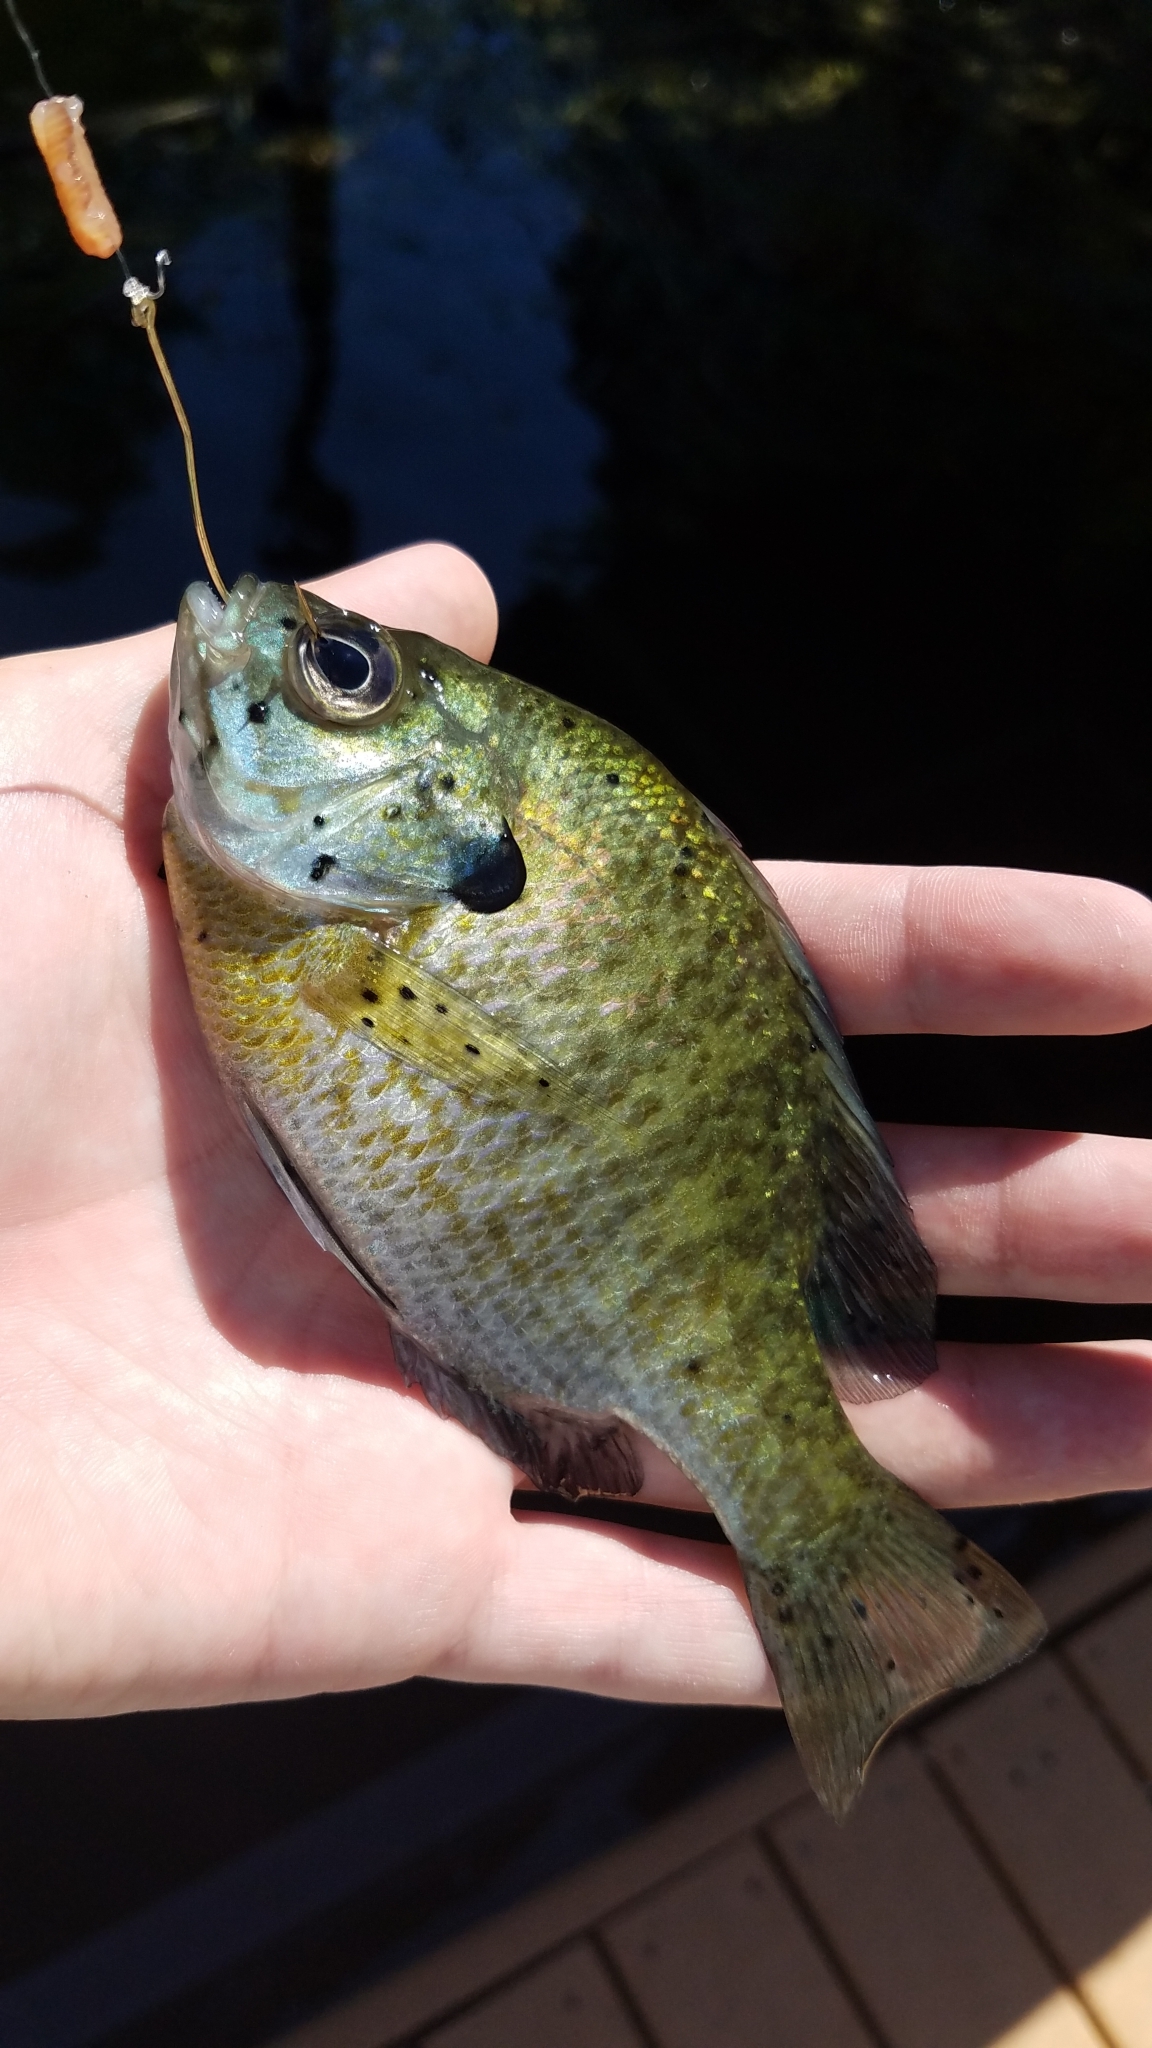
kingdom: Animalia
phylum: Chordata
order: Perciformes
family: Centrarchidae
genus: Lepomis
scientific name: Lepomis macrochirus
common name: Bluegill
